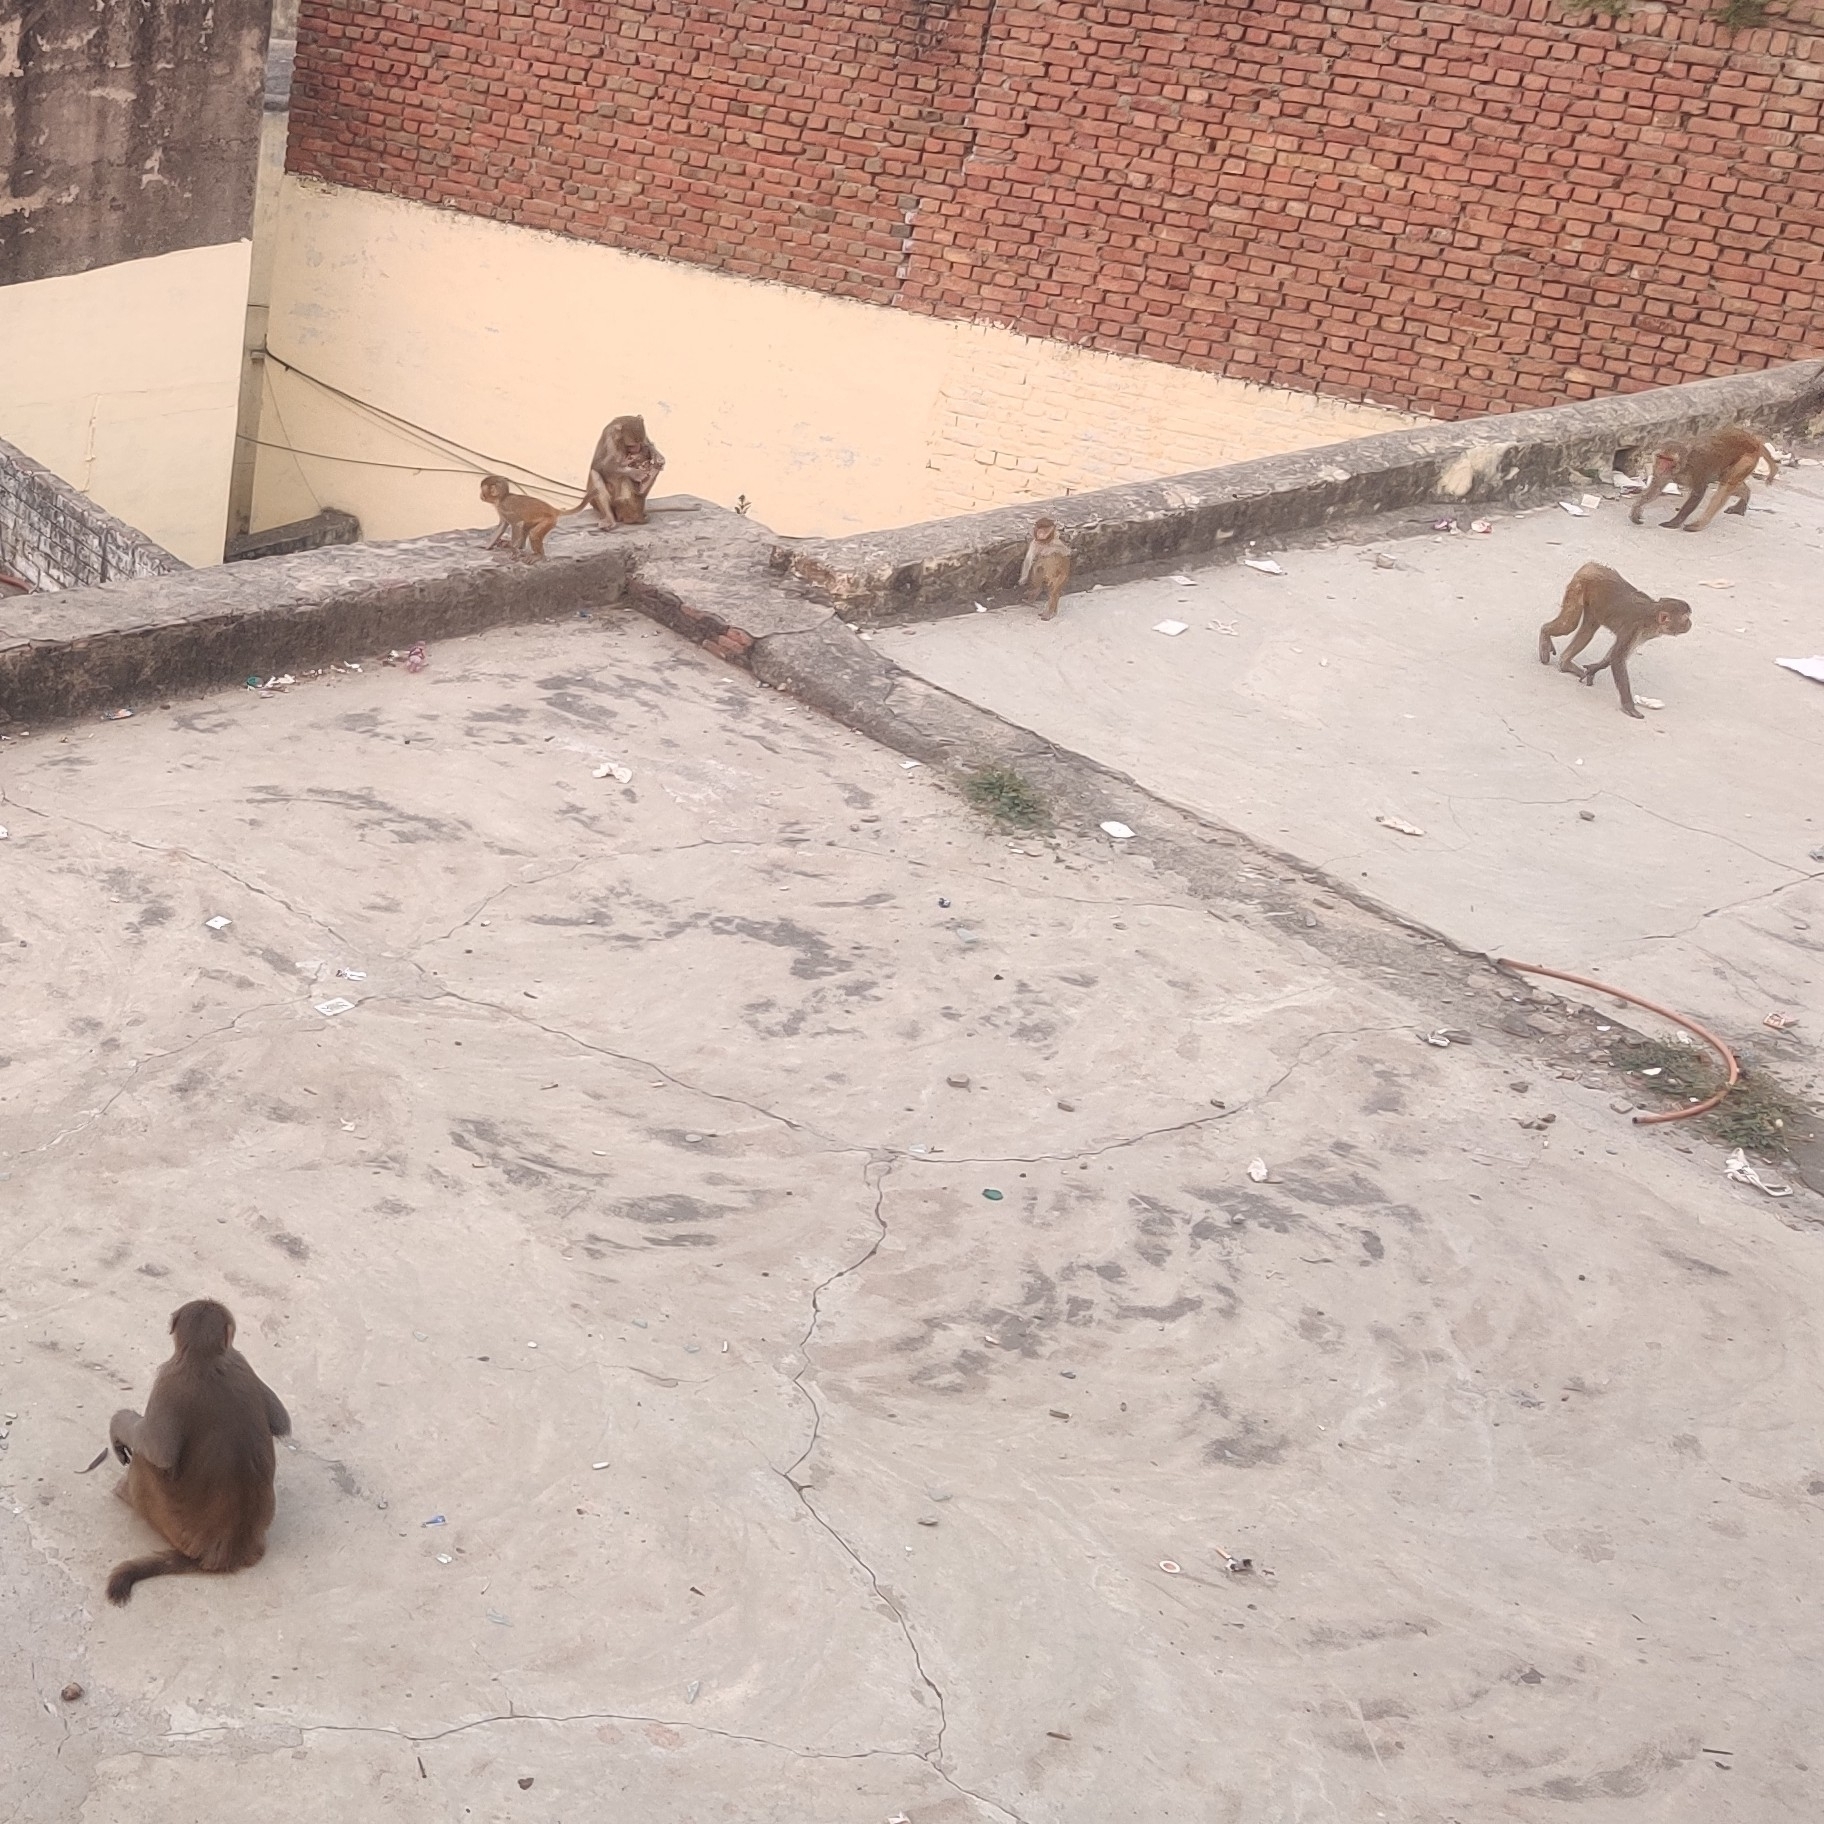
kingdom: Animalia
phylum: Chordata
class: Mammalia
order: Primates
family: Cercopithecidae
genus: Macaca
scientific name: Macaca mulatta
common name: Rhesus monkey
